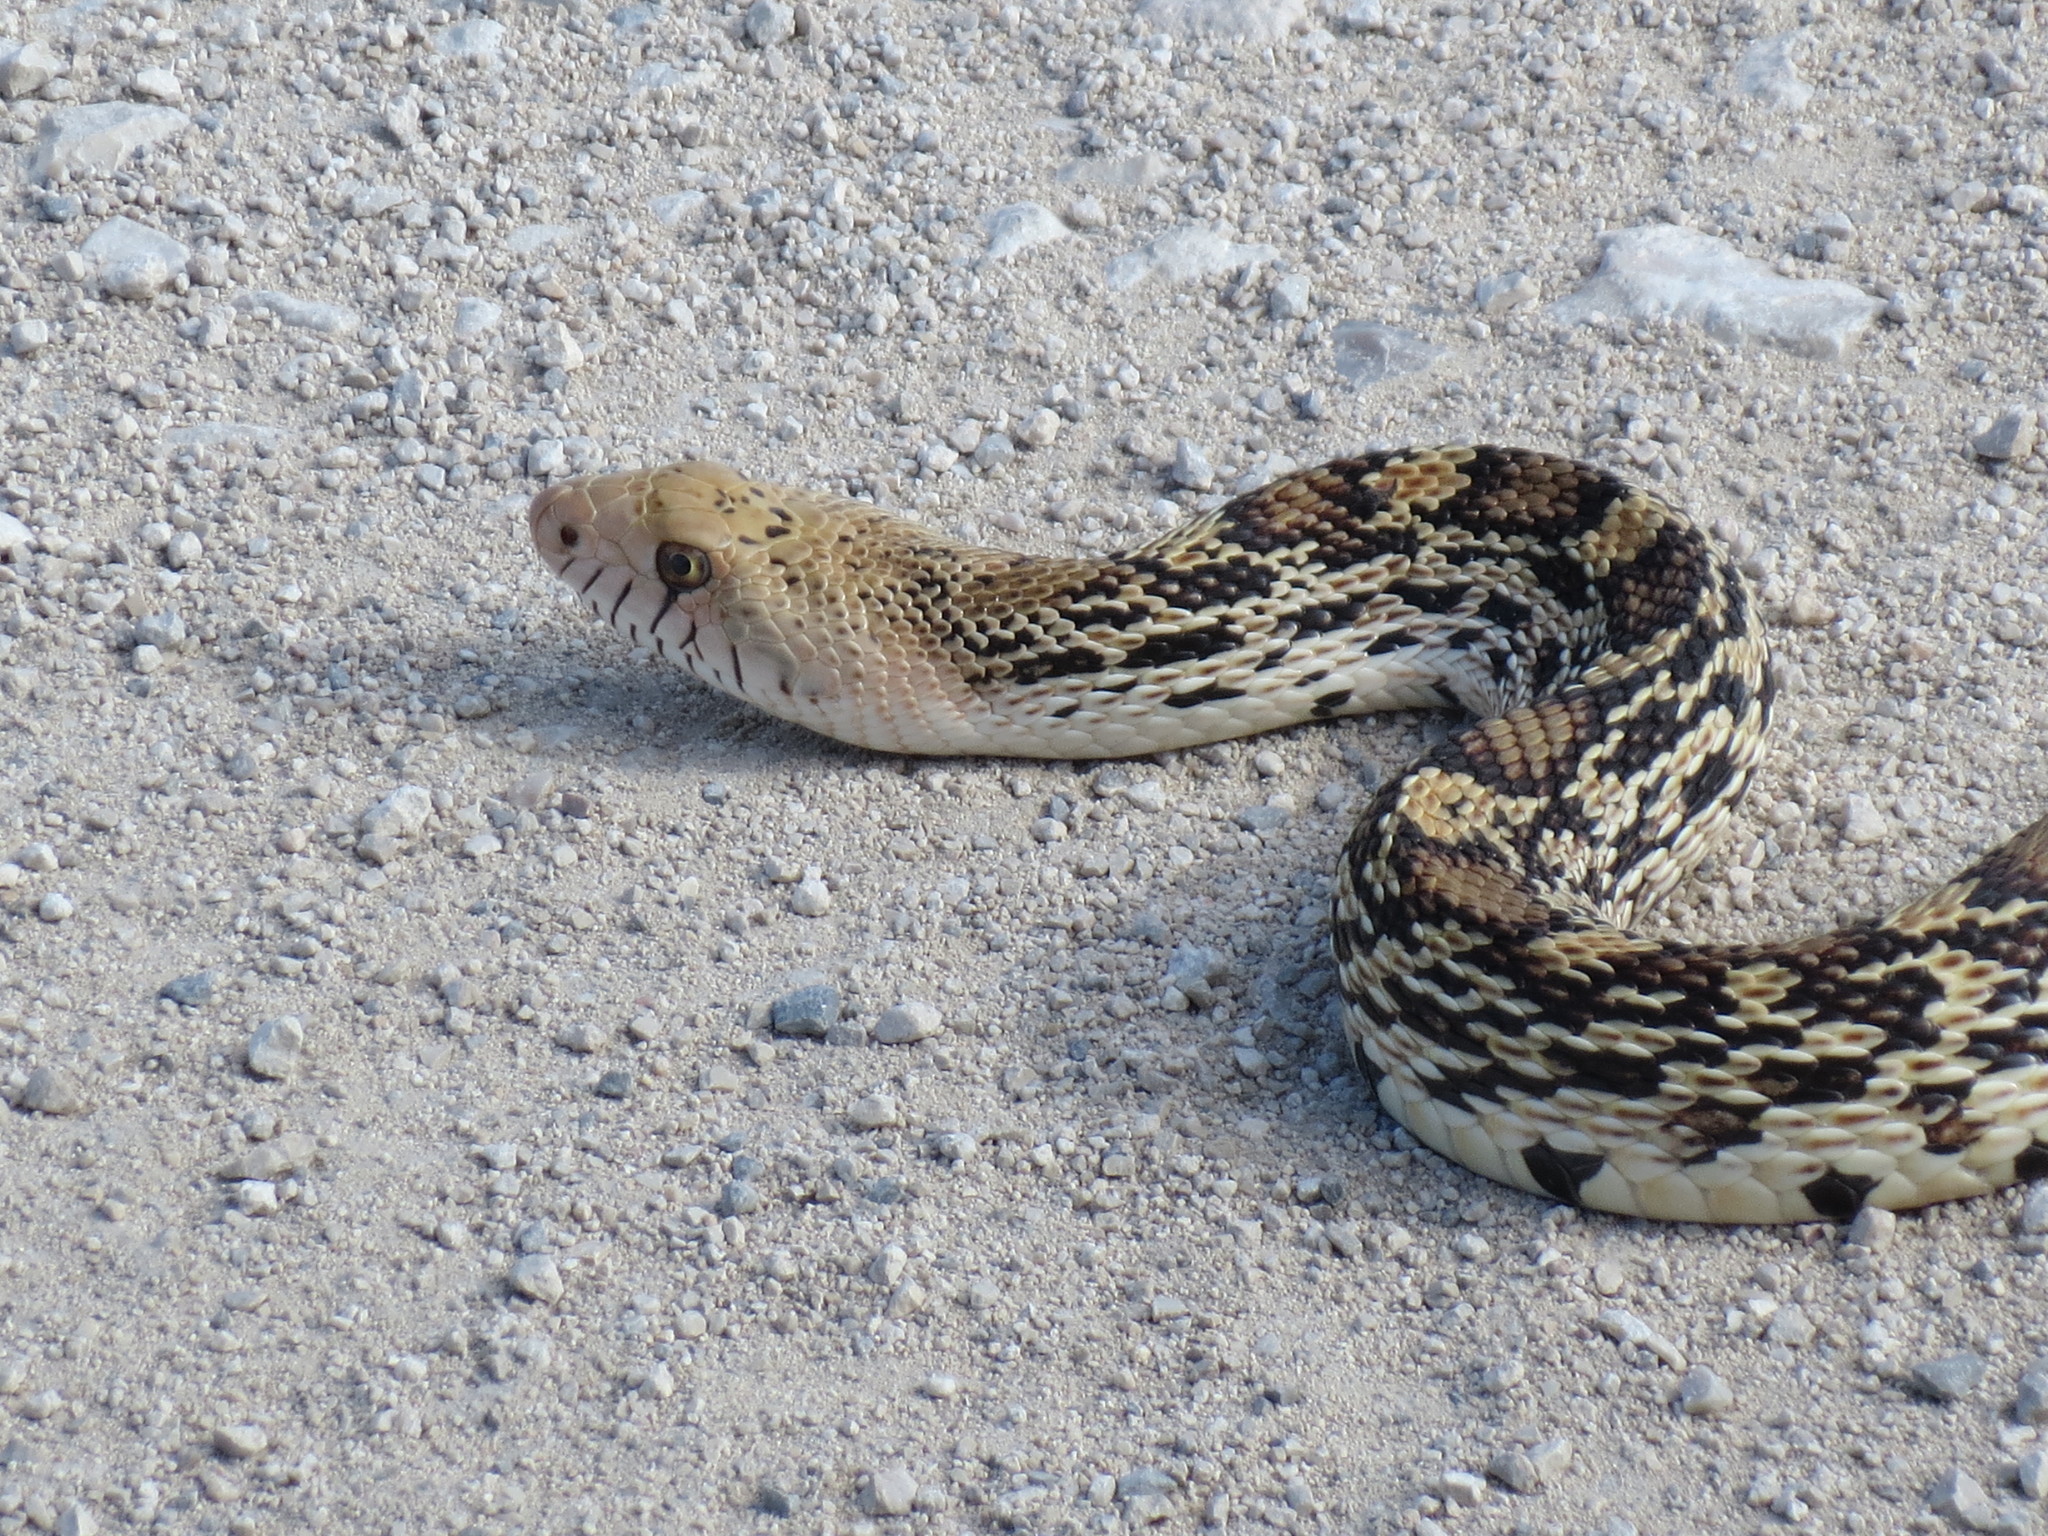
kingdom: Animalia
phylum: Chordata
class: Squamata
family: Colubridae
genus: Pituophis
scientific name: Pituophis catenifer
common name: Gopher snake
